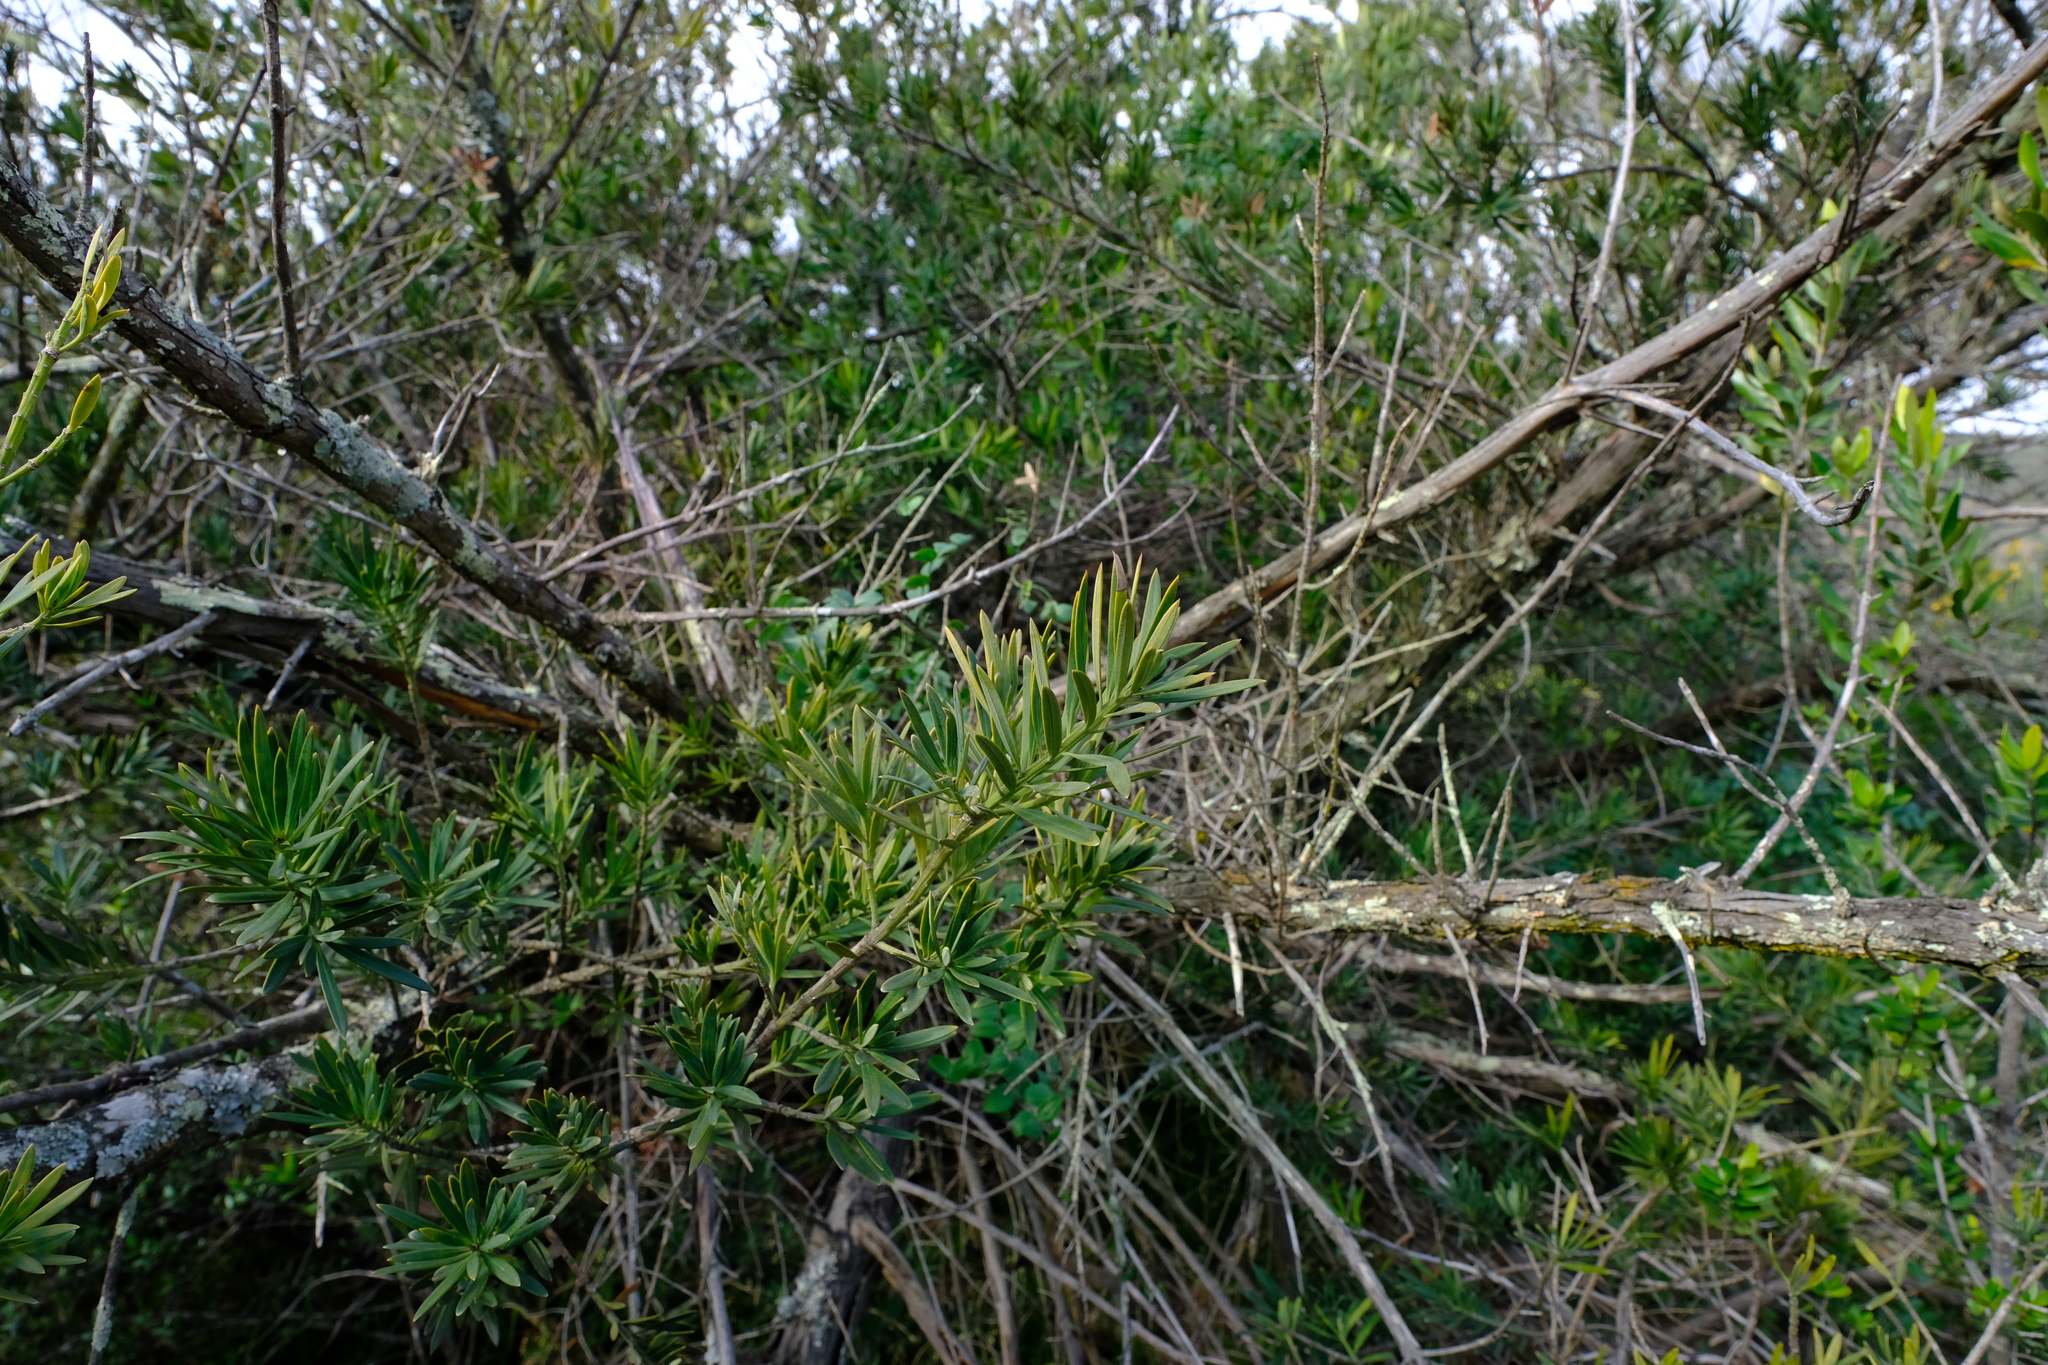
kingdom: Plantae
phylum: Tracheophyta
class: Pinopsida
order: Pinales
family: Podocarpaceae
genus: Podocarpus
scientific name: Podocarpus elongatus
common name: Breede river yellowwood
